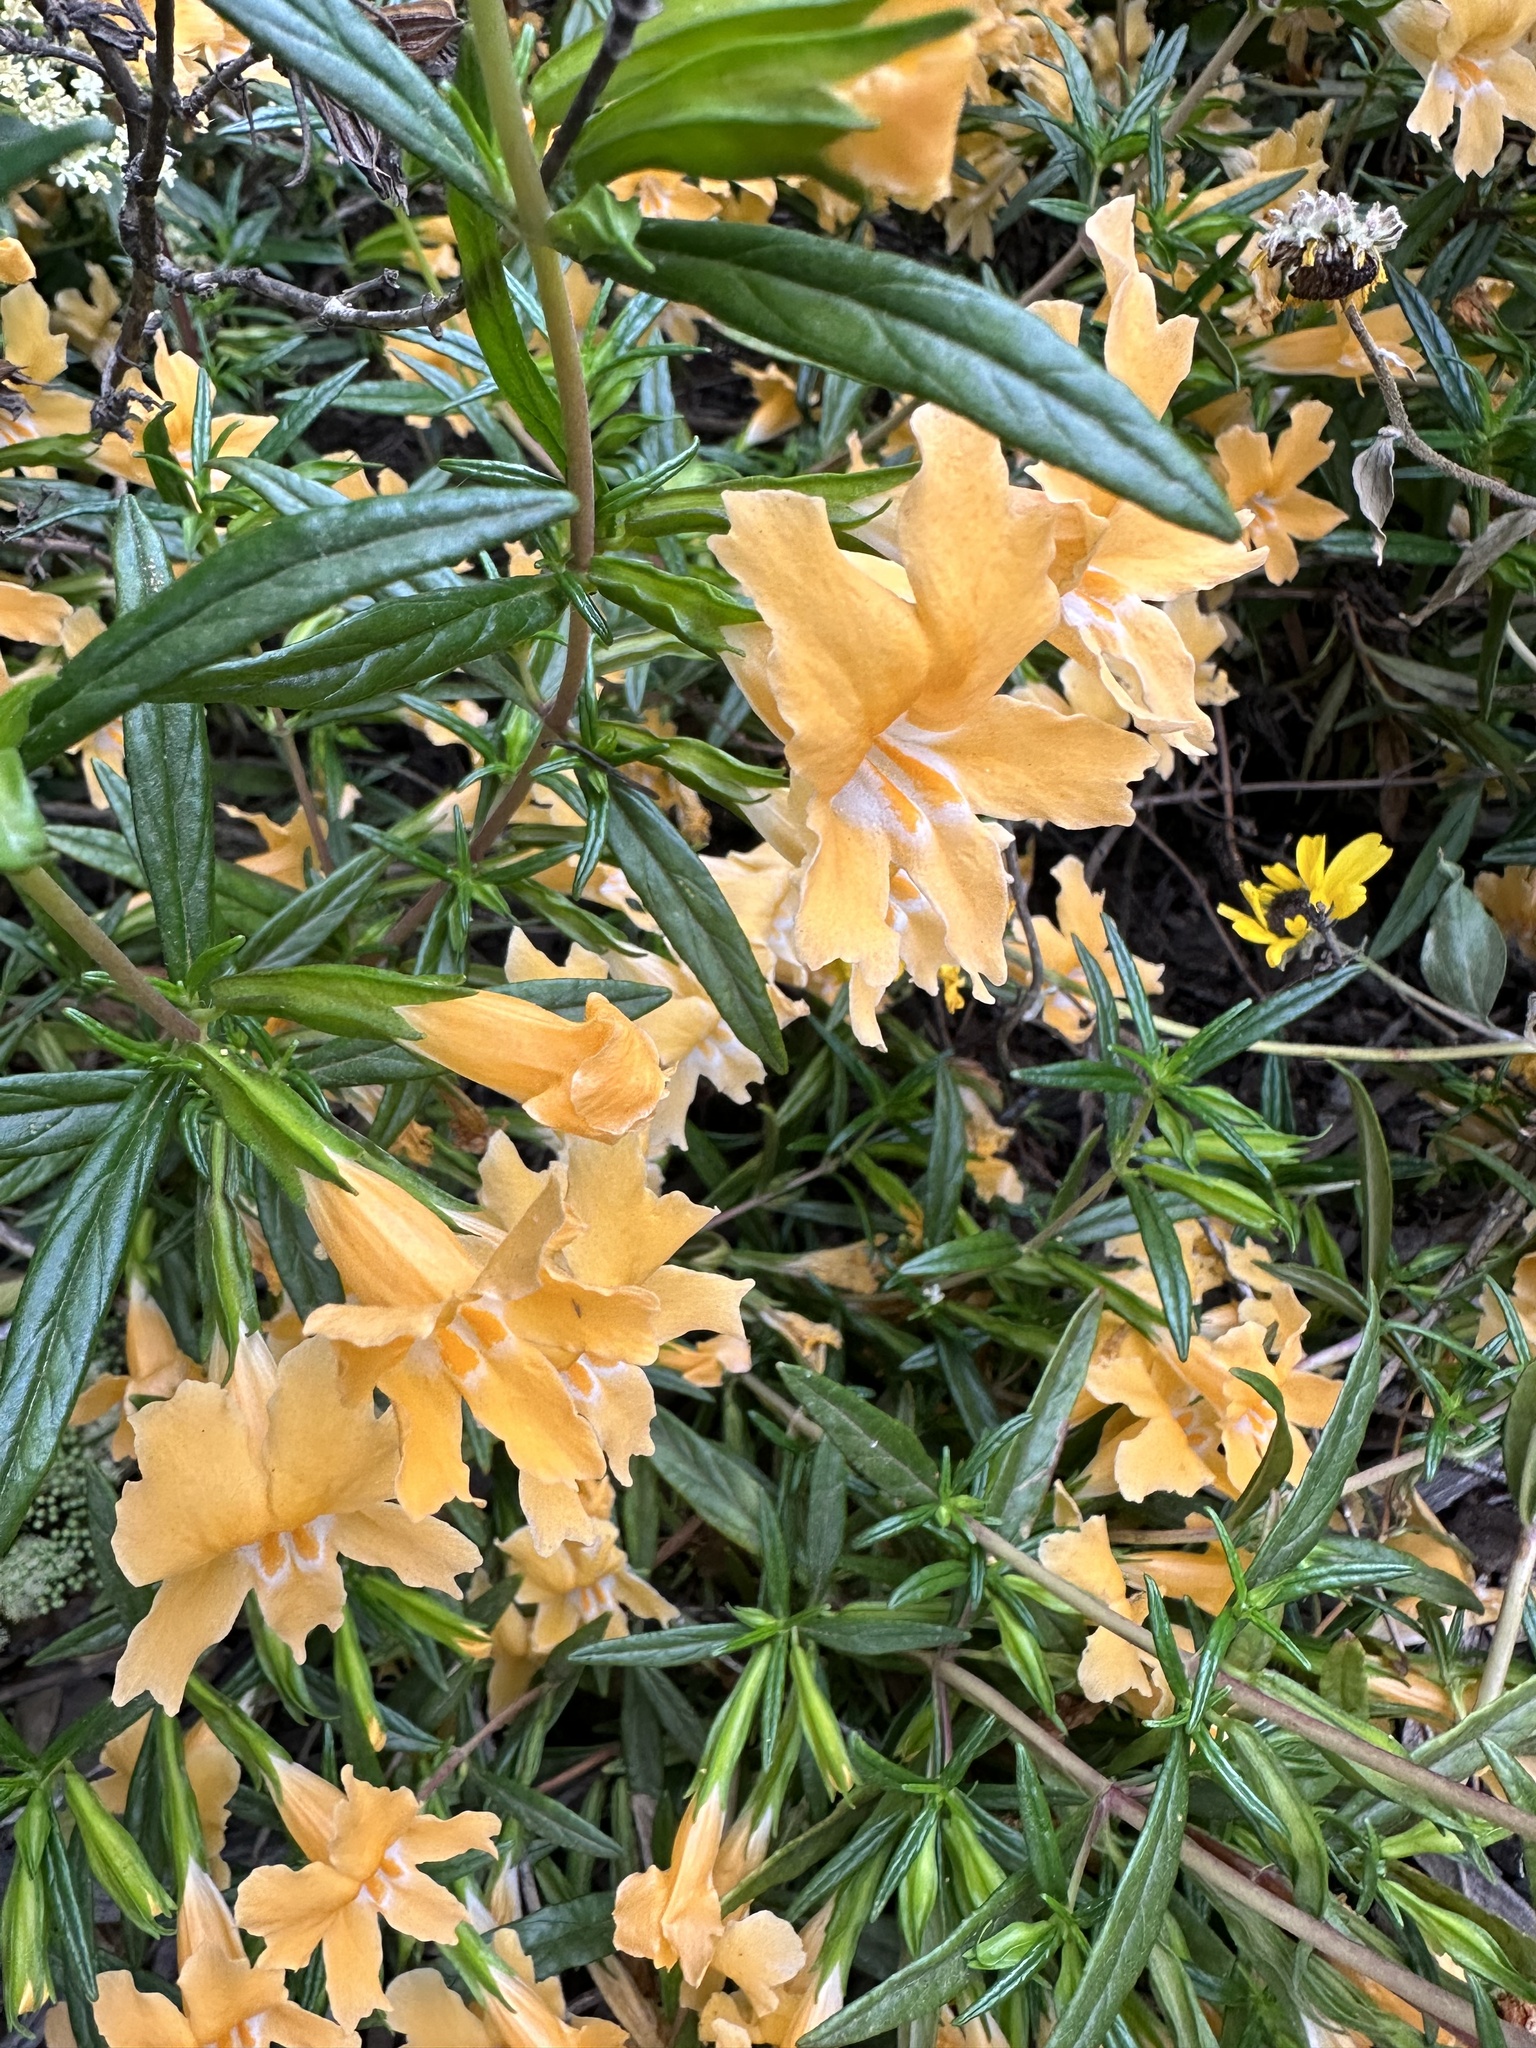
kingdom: Plantae
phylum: Tracheophyta
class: Magnoliopsida
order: Lamiales
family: Phrymaceae
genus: Diplacus
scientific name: Diplacus australis
